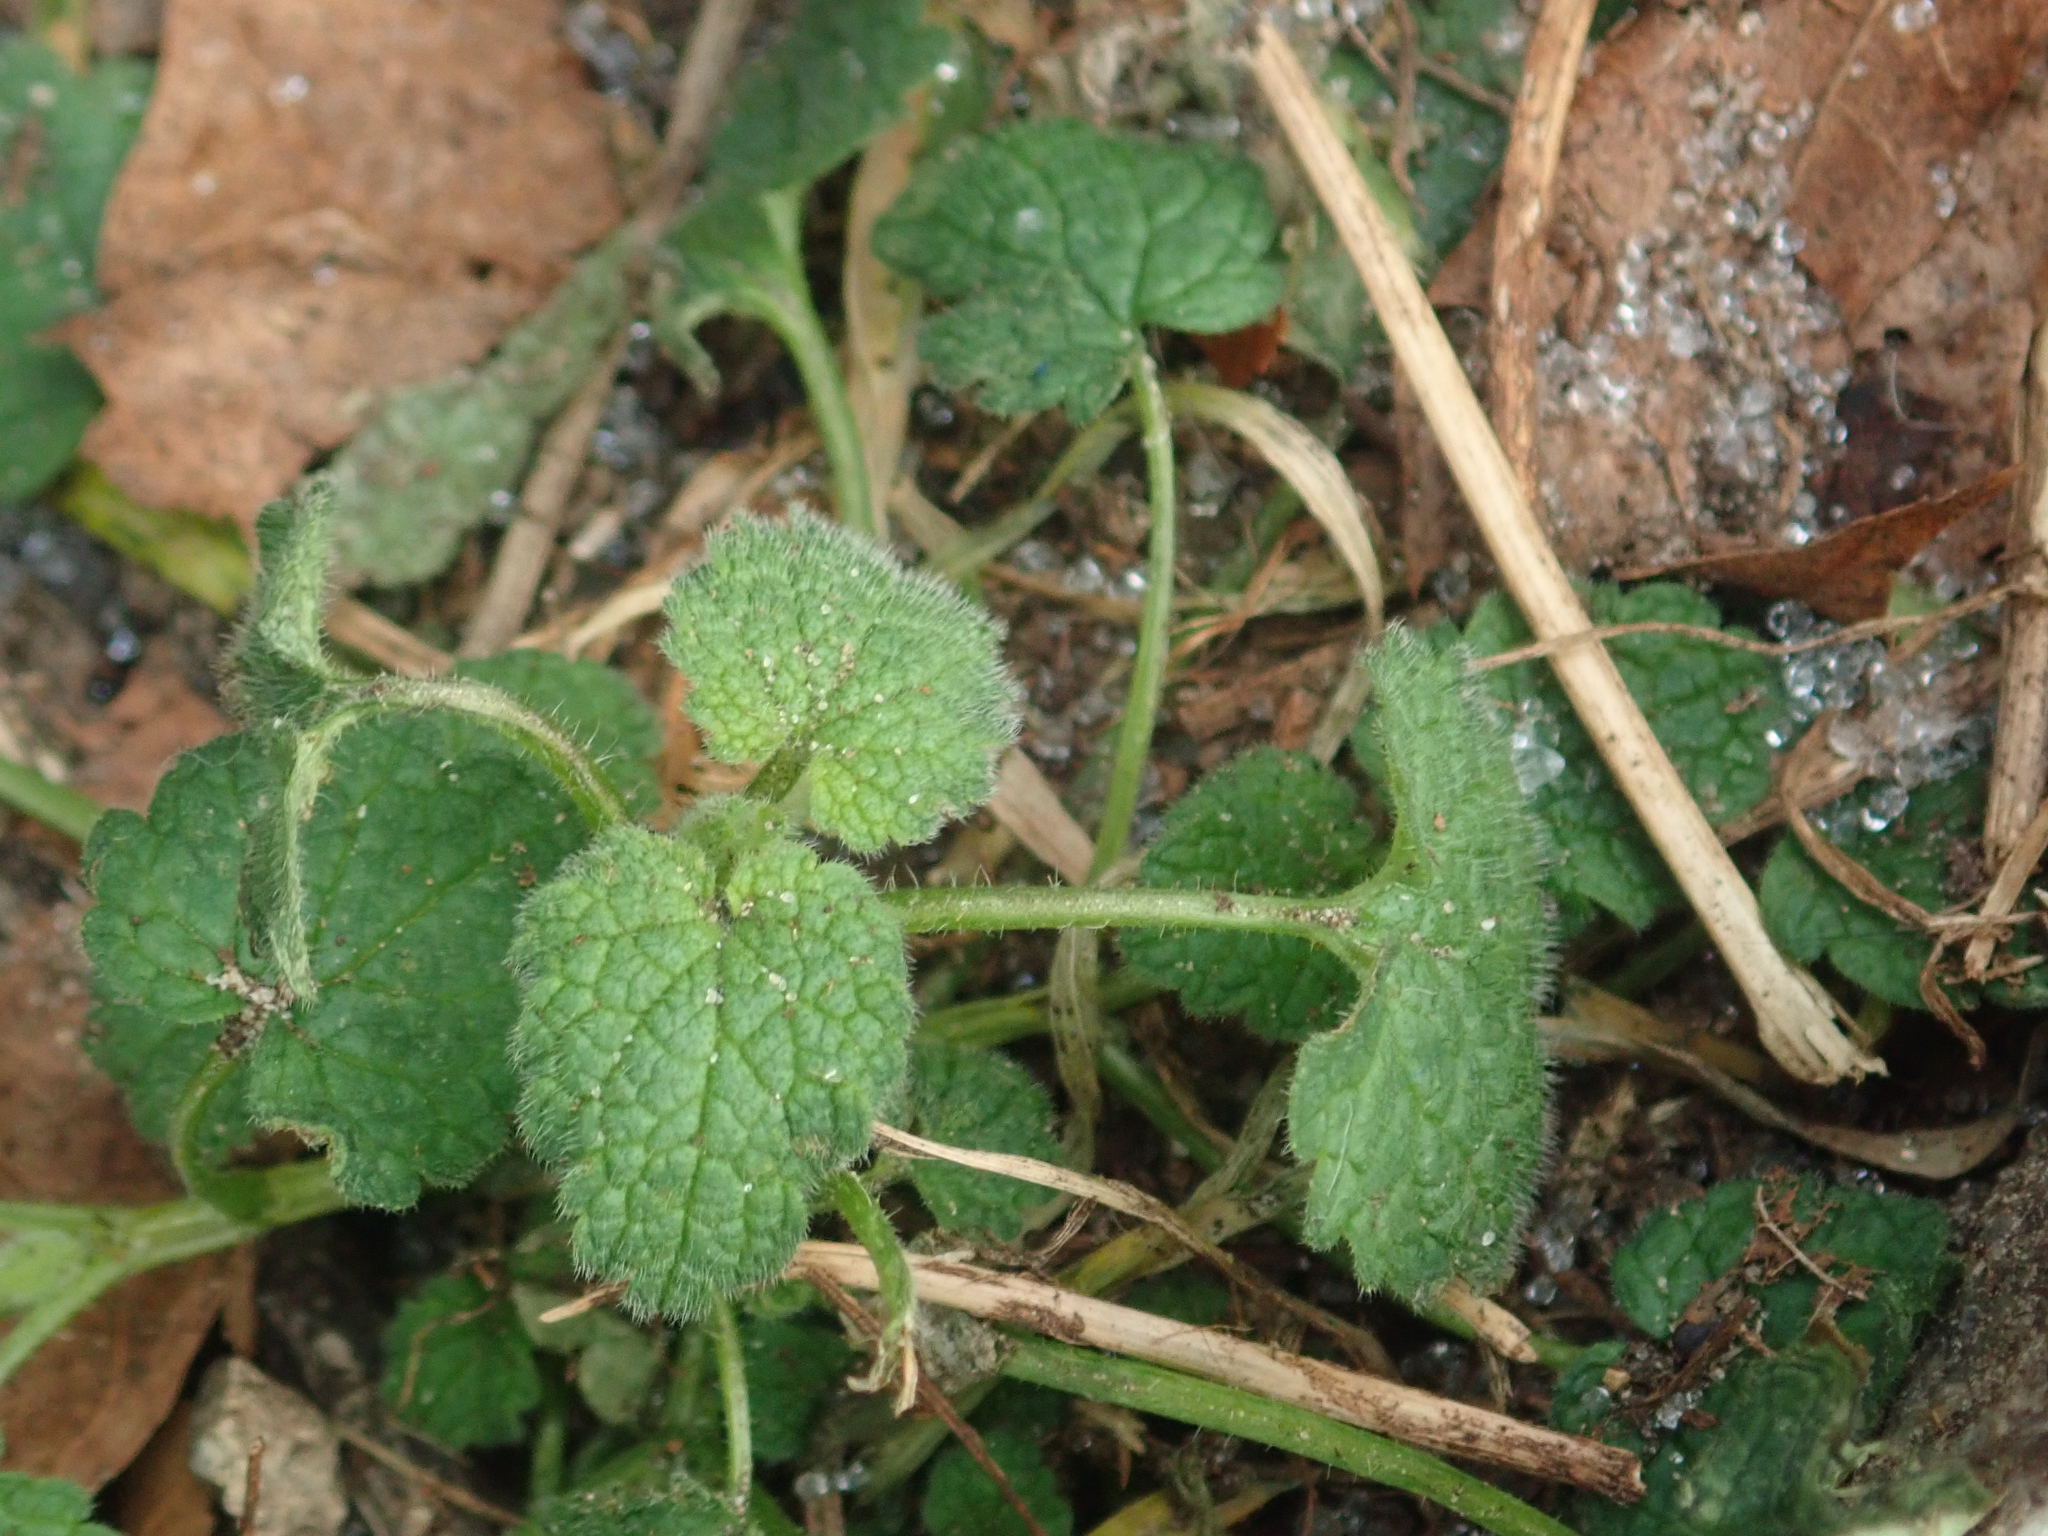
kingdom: Plantae
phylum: Tracheophyta
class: Magnoliopsida
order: Lamiales
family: Lamiaceae
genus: Lamium
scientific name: Lamium purpureum
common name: Red dead-nettle
